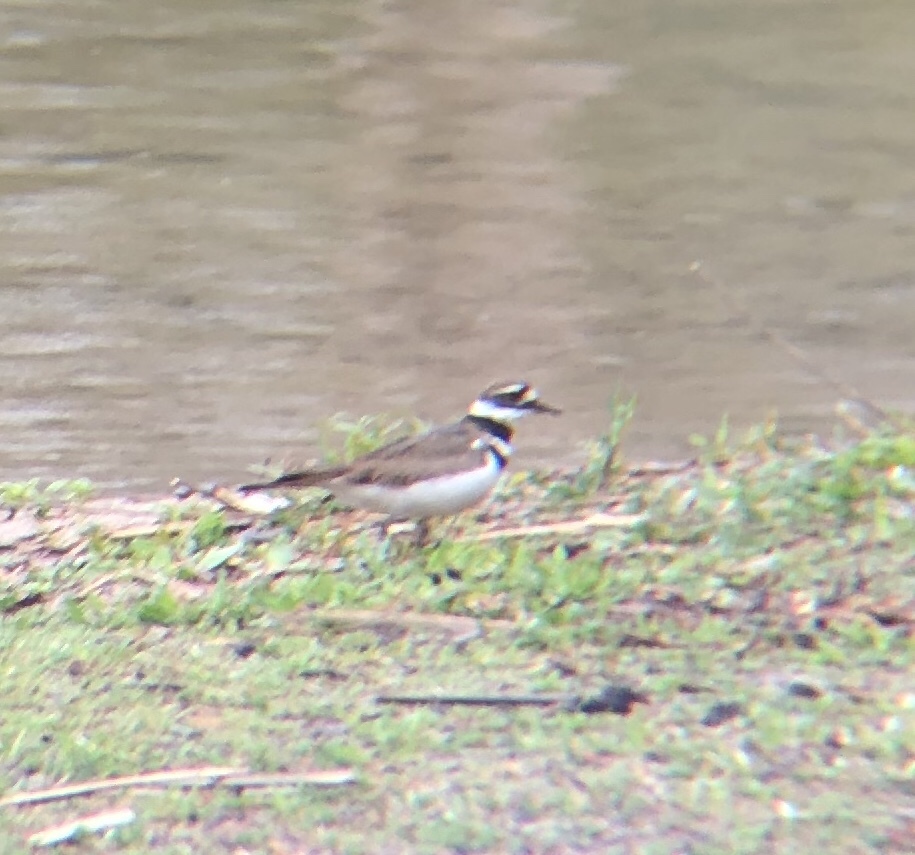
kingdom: Animalia
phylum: Chordata
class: Aves
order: Charadriiformes
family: Charadriidae
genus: Charadrius
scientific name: Charadrius vociferus
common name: Killdeer
